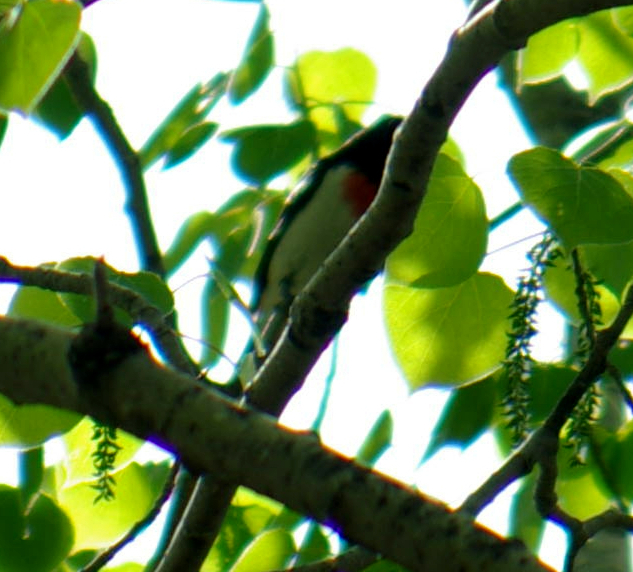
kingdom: Animalia
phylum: Chordata
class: Aves
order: Passeriformes
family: Cardinalidae
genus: Pheucticus
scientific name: Pheucticus ludovicianus
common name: Rose-breasted grosbeak
